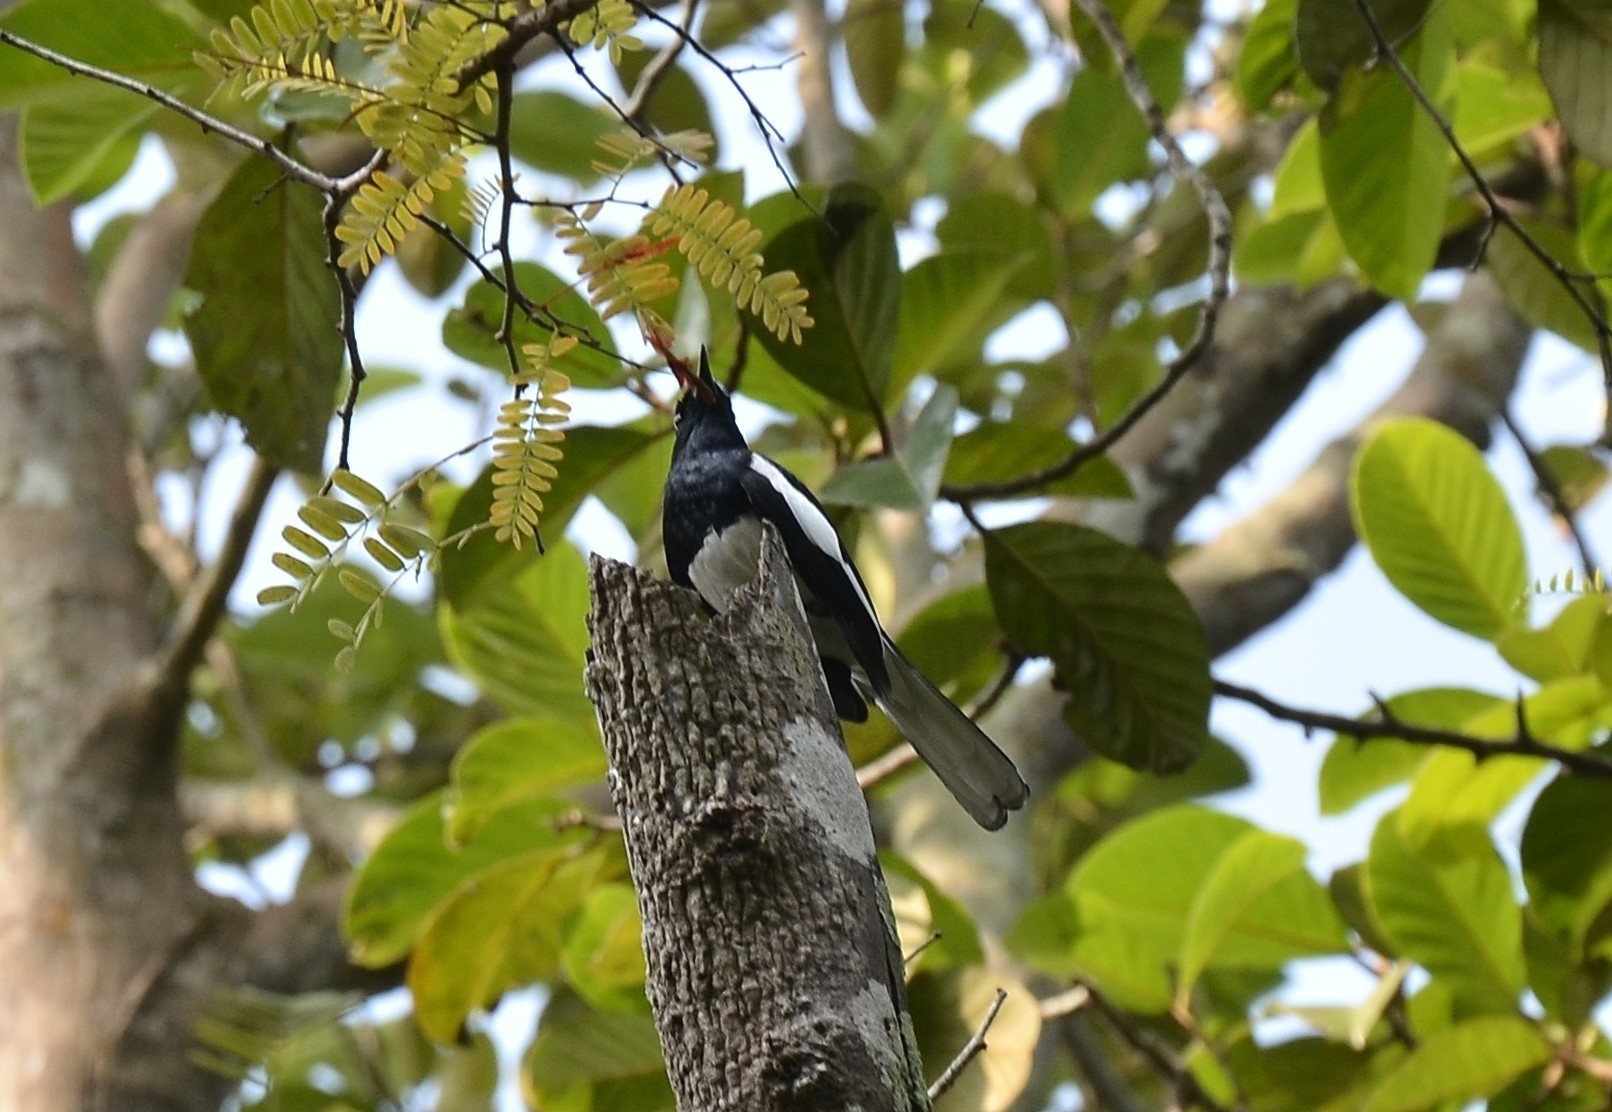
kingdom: Animalia
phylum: Chordata
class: Aves
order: Passeriformes
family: Muscicapidae
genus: Copsychus
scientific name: Copsychus saularis
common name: Oriental magpie-robin
